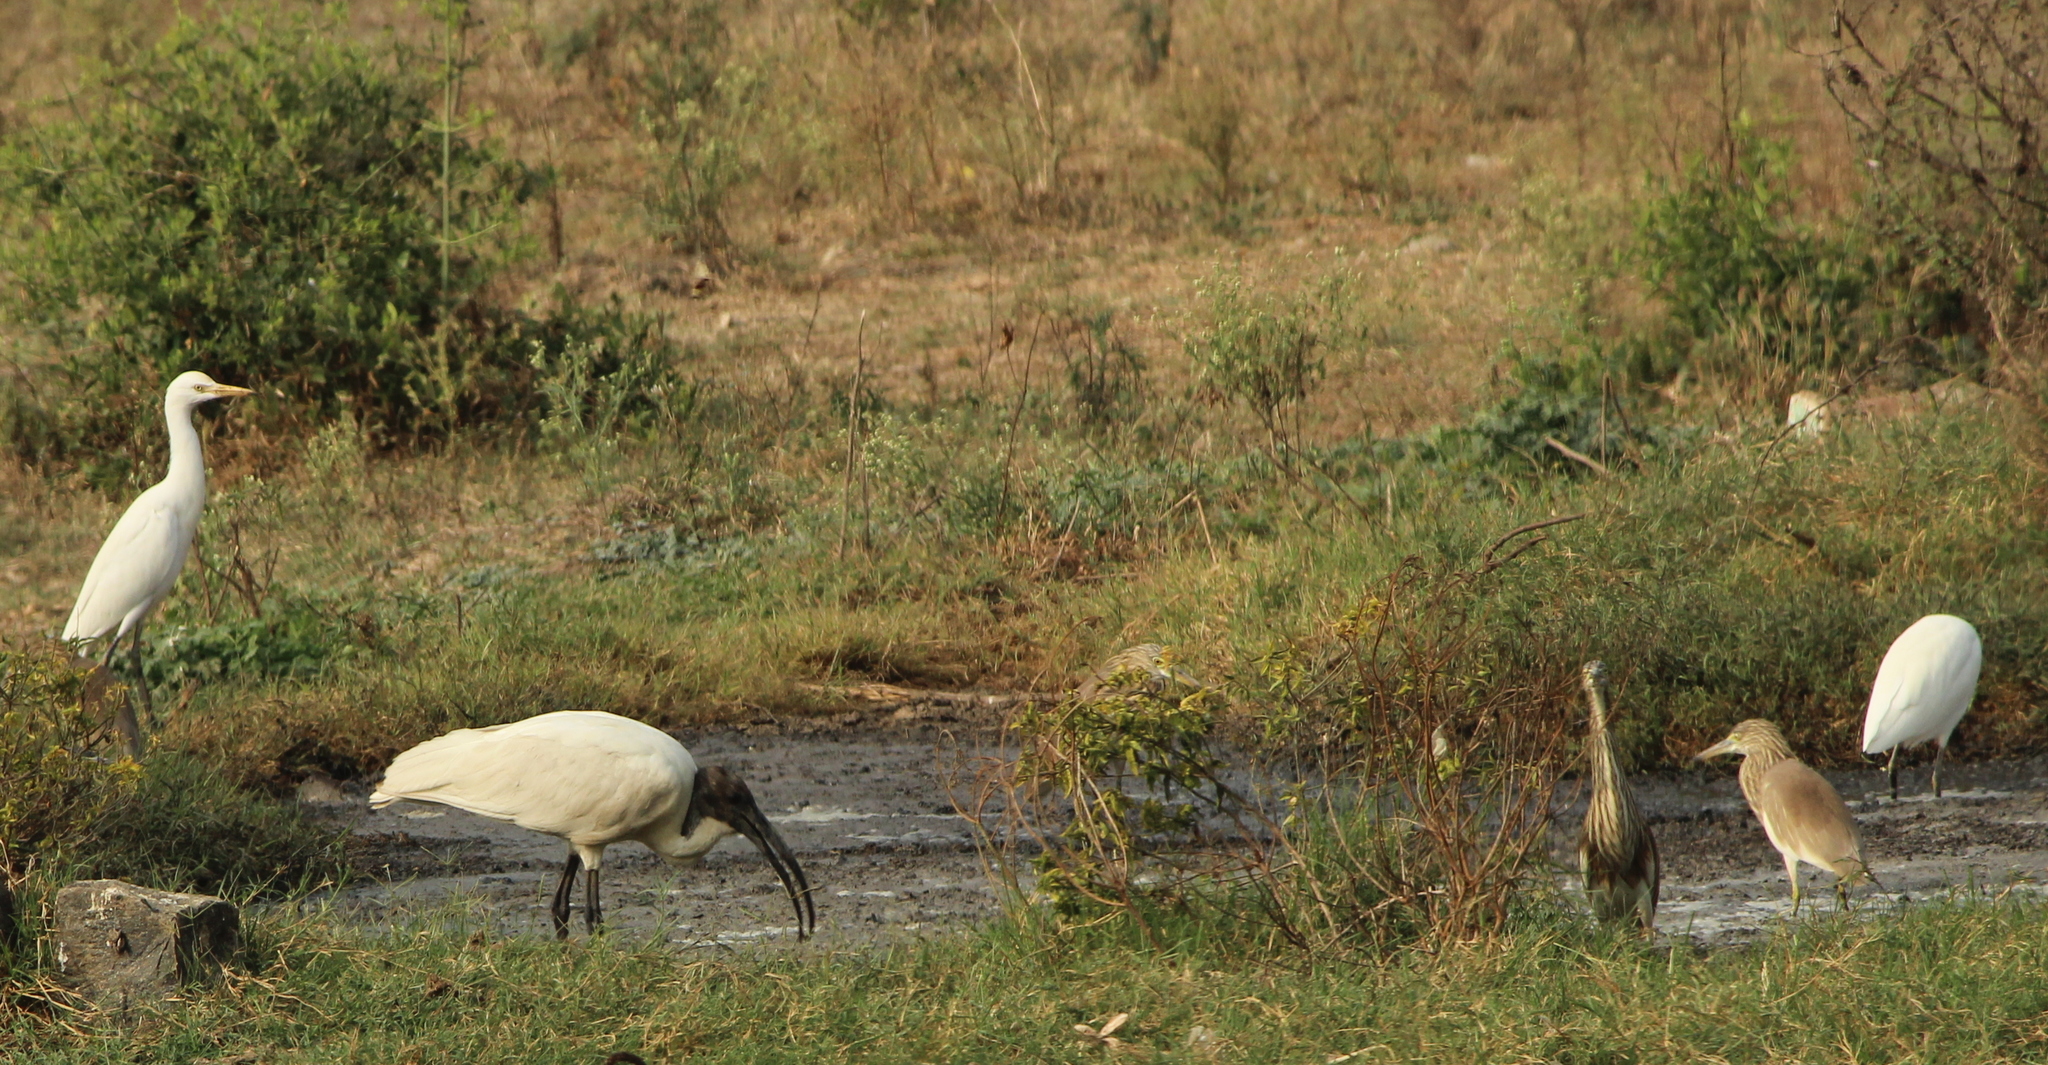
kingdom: Animalia
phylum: Chordata
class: Aves
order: Pelecaniformes
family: Threskiornithidae
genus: Threskiornis
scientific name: Threskiornis melanocephalus
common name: Black-headed ibis
